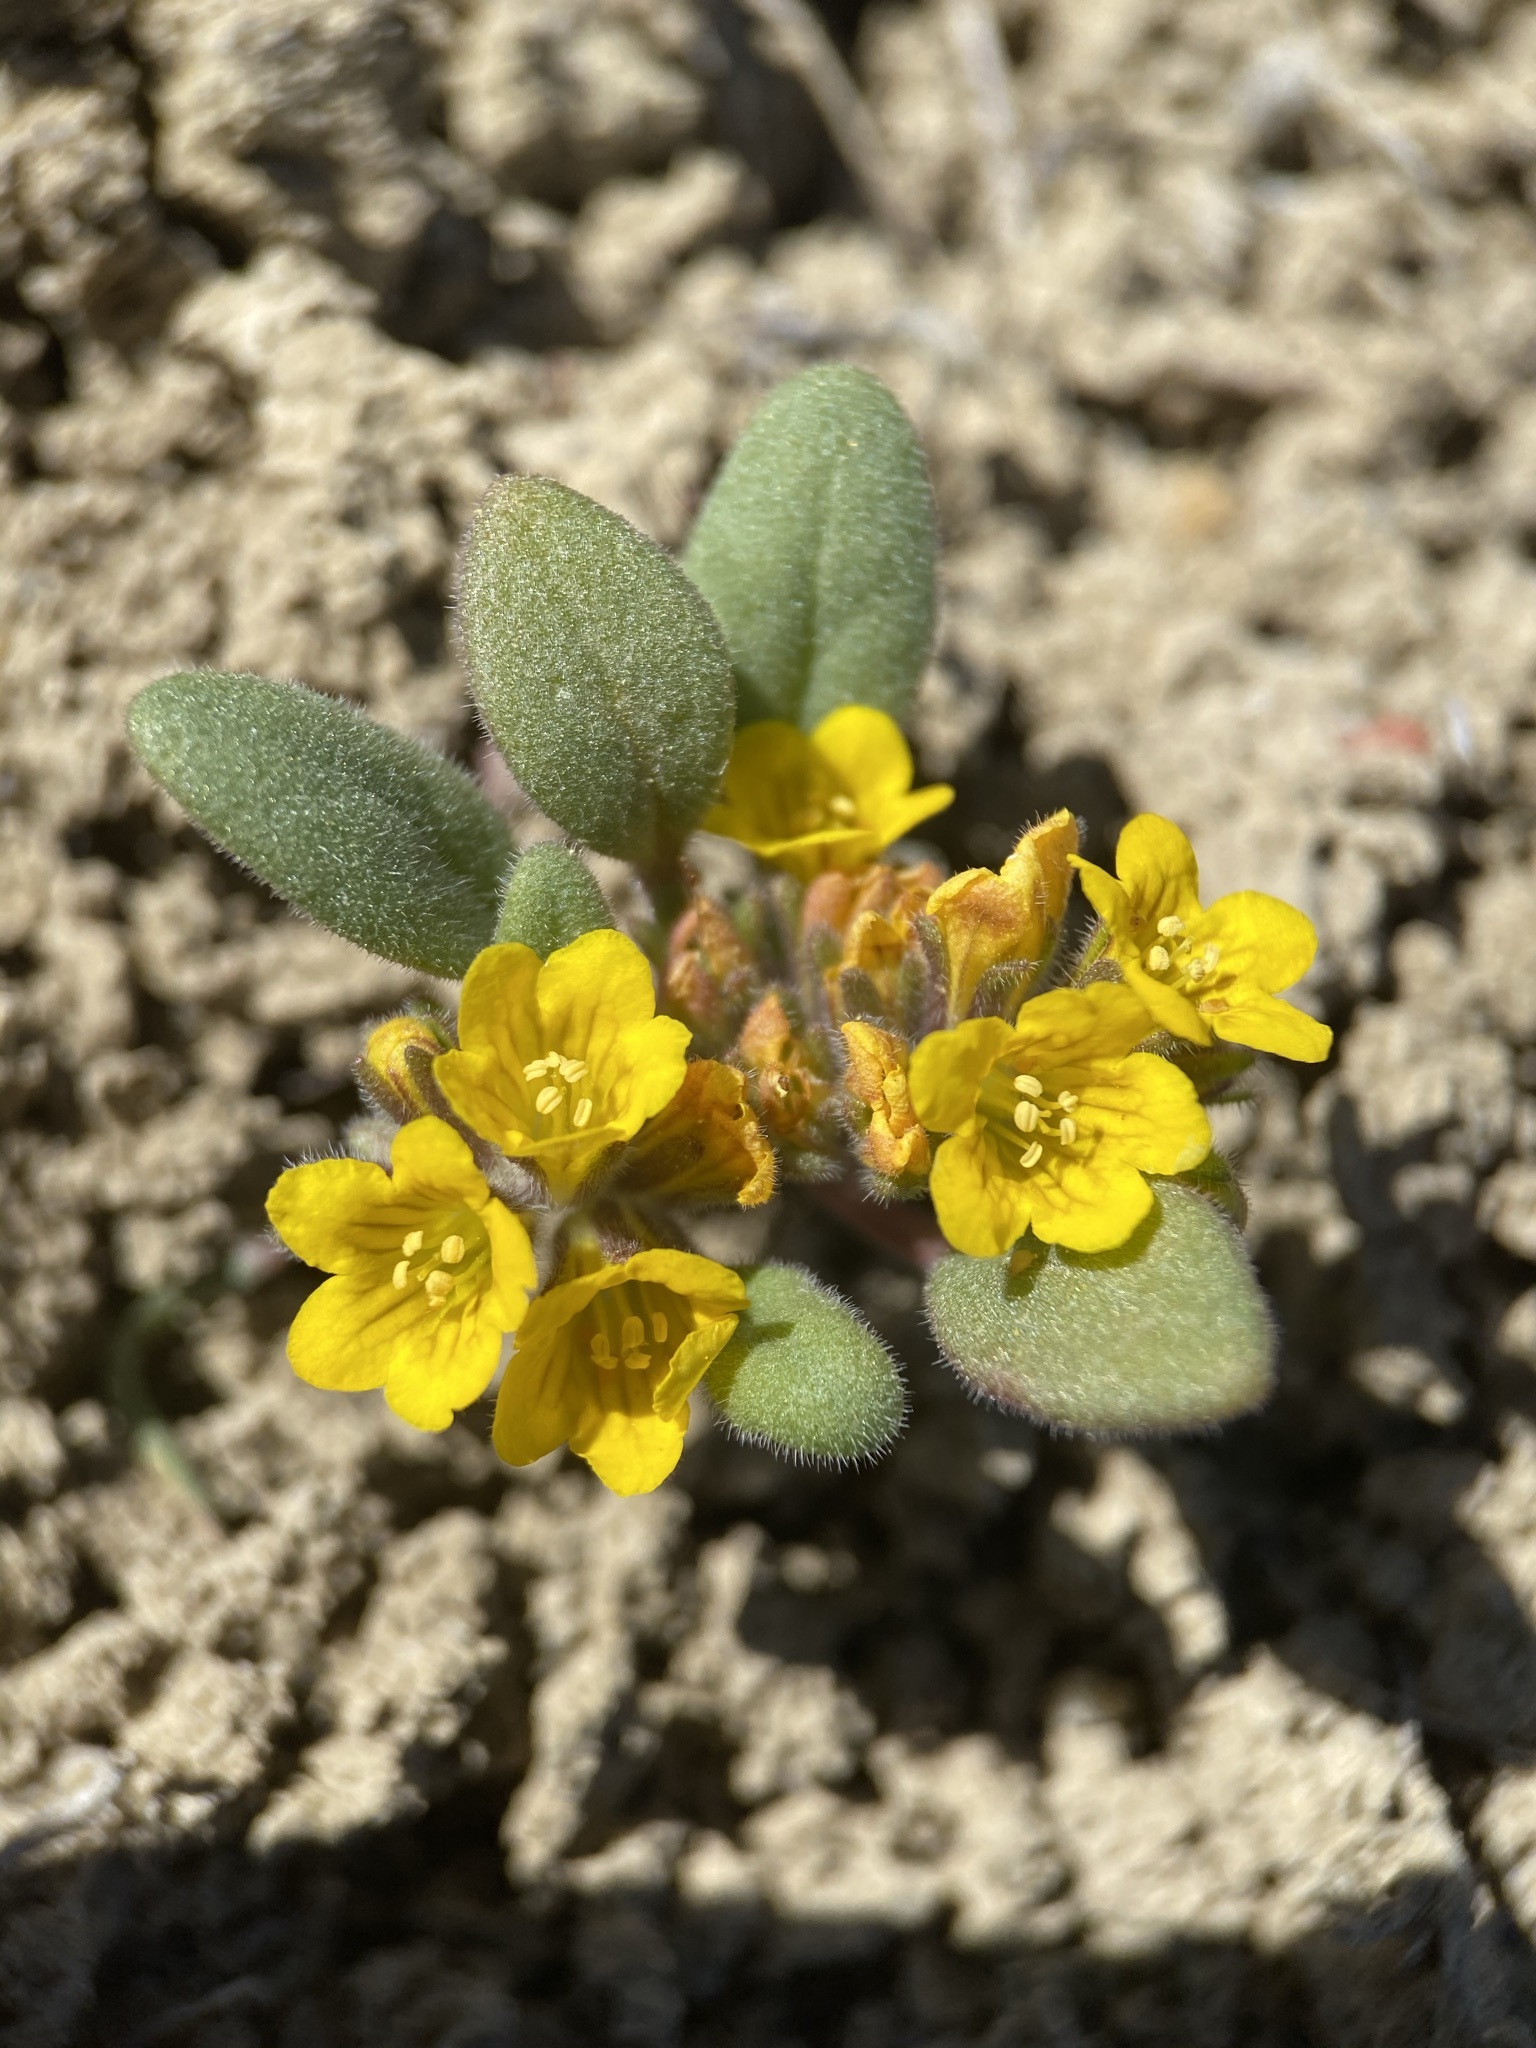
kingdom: Plantae
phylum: Tracheophyta
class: Magnoliopsida
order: Boraginales
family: Hydrophyllaceae
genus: Phacelia
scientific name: Phacelia lutea
